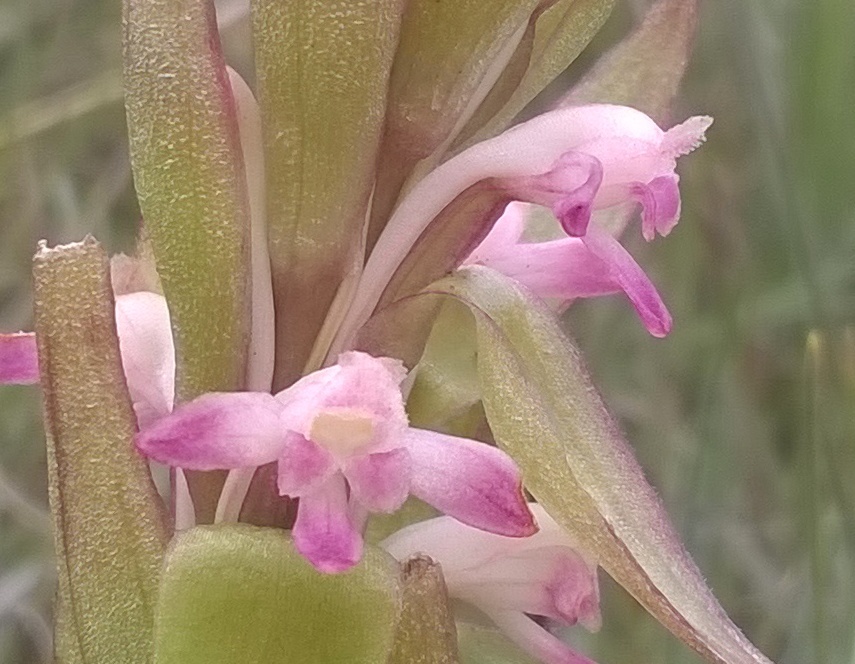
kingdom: Plantae
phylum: Tracheophyta
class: Liliopsida
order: Asparagales
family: Orchidaceae
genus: Satyrium
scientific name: Satyrium longicauda
